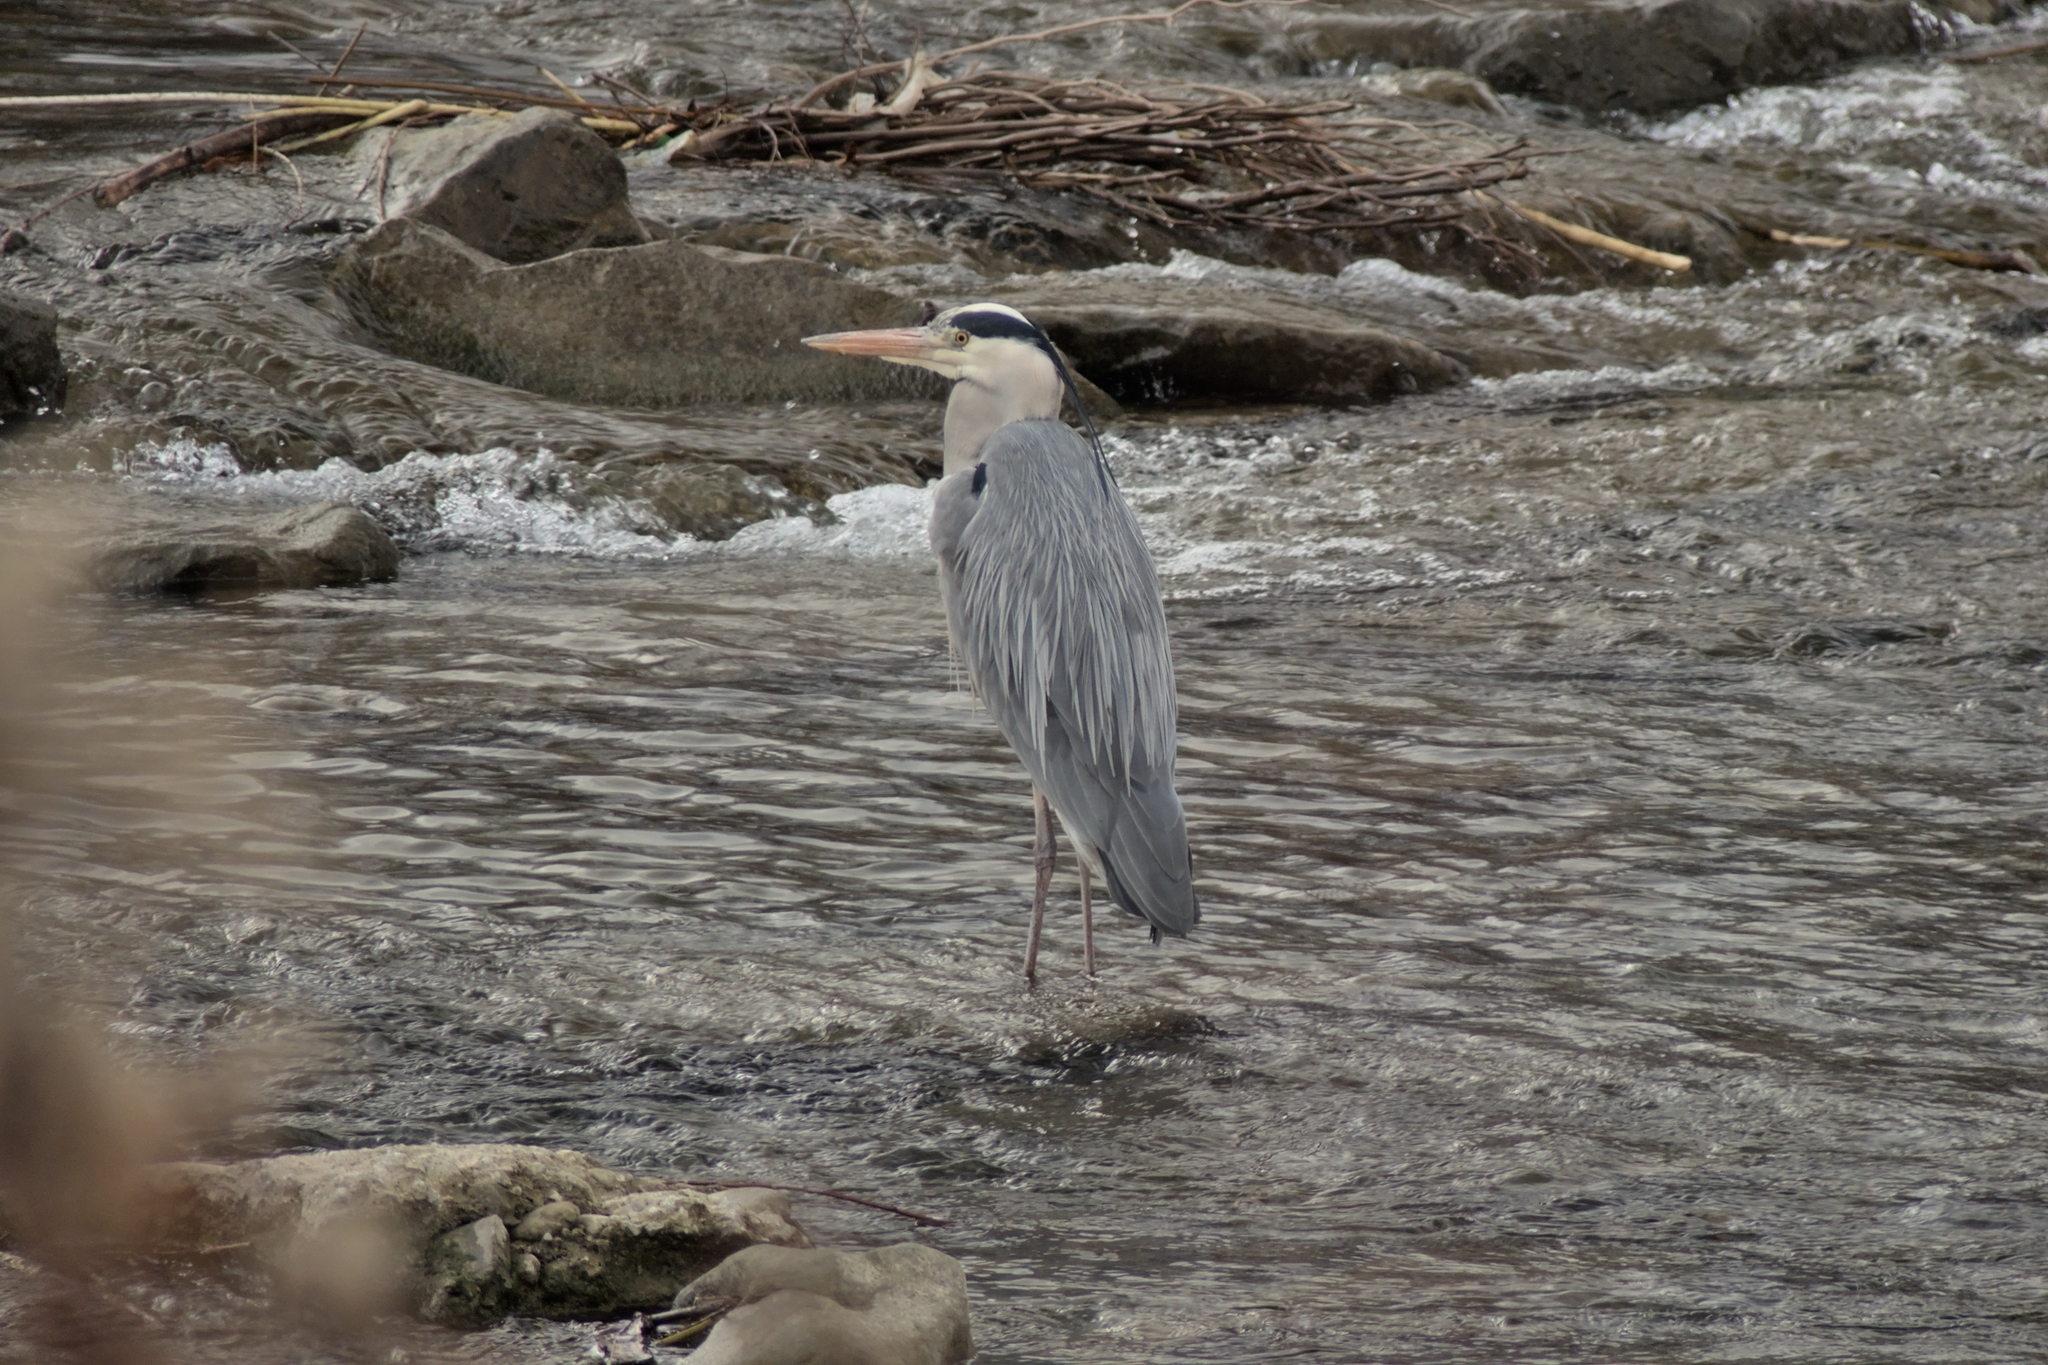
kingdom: Animalia
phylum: Chordata
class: Aves
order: Pelecaniformes
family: Ardeidae
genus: Ardea
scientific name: Ardea cinerea
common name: Grey heron
